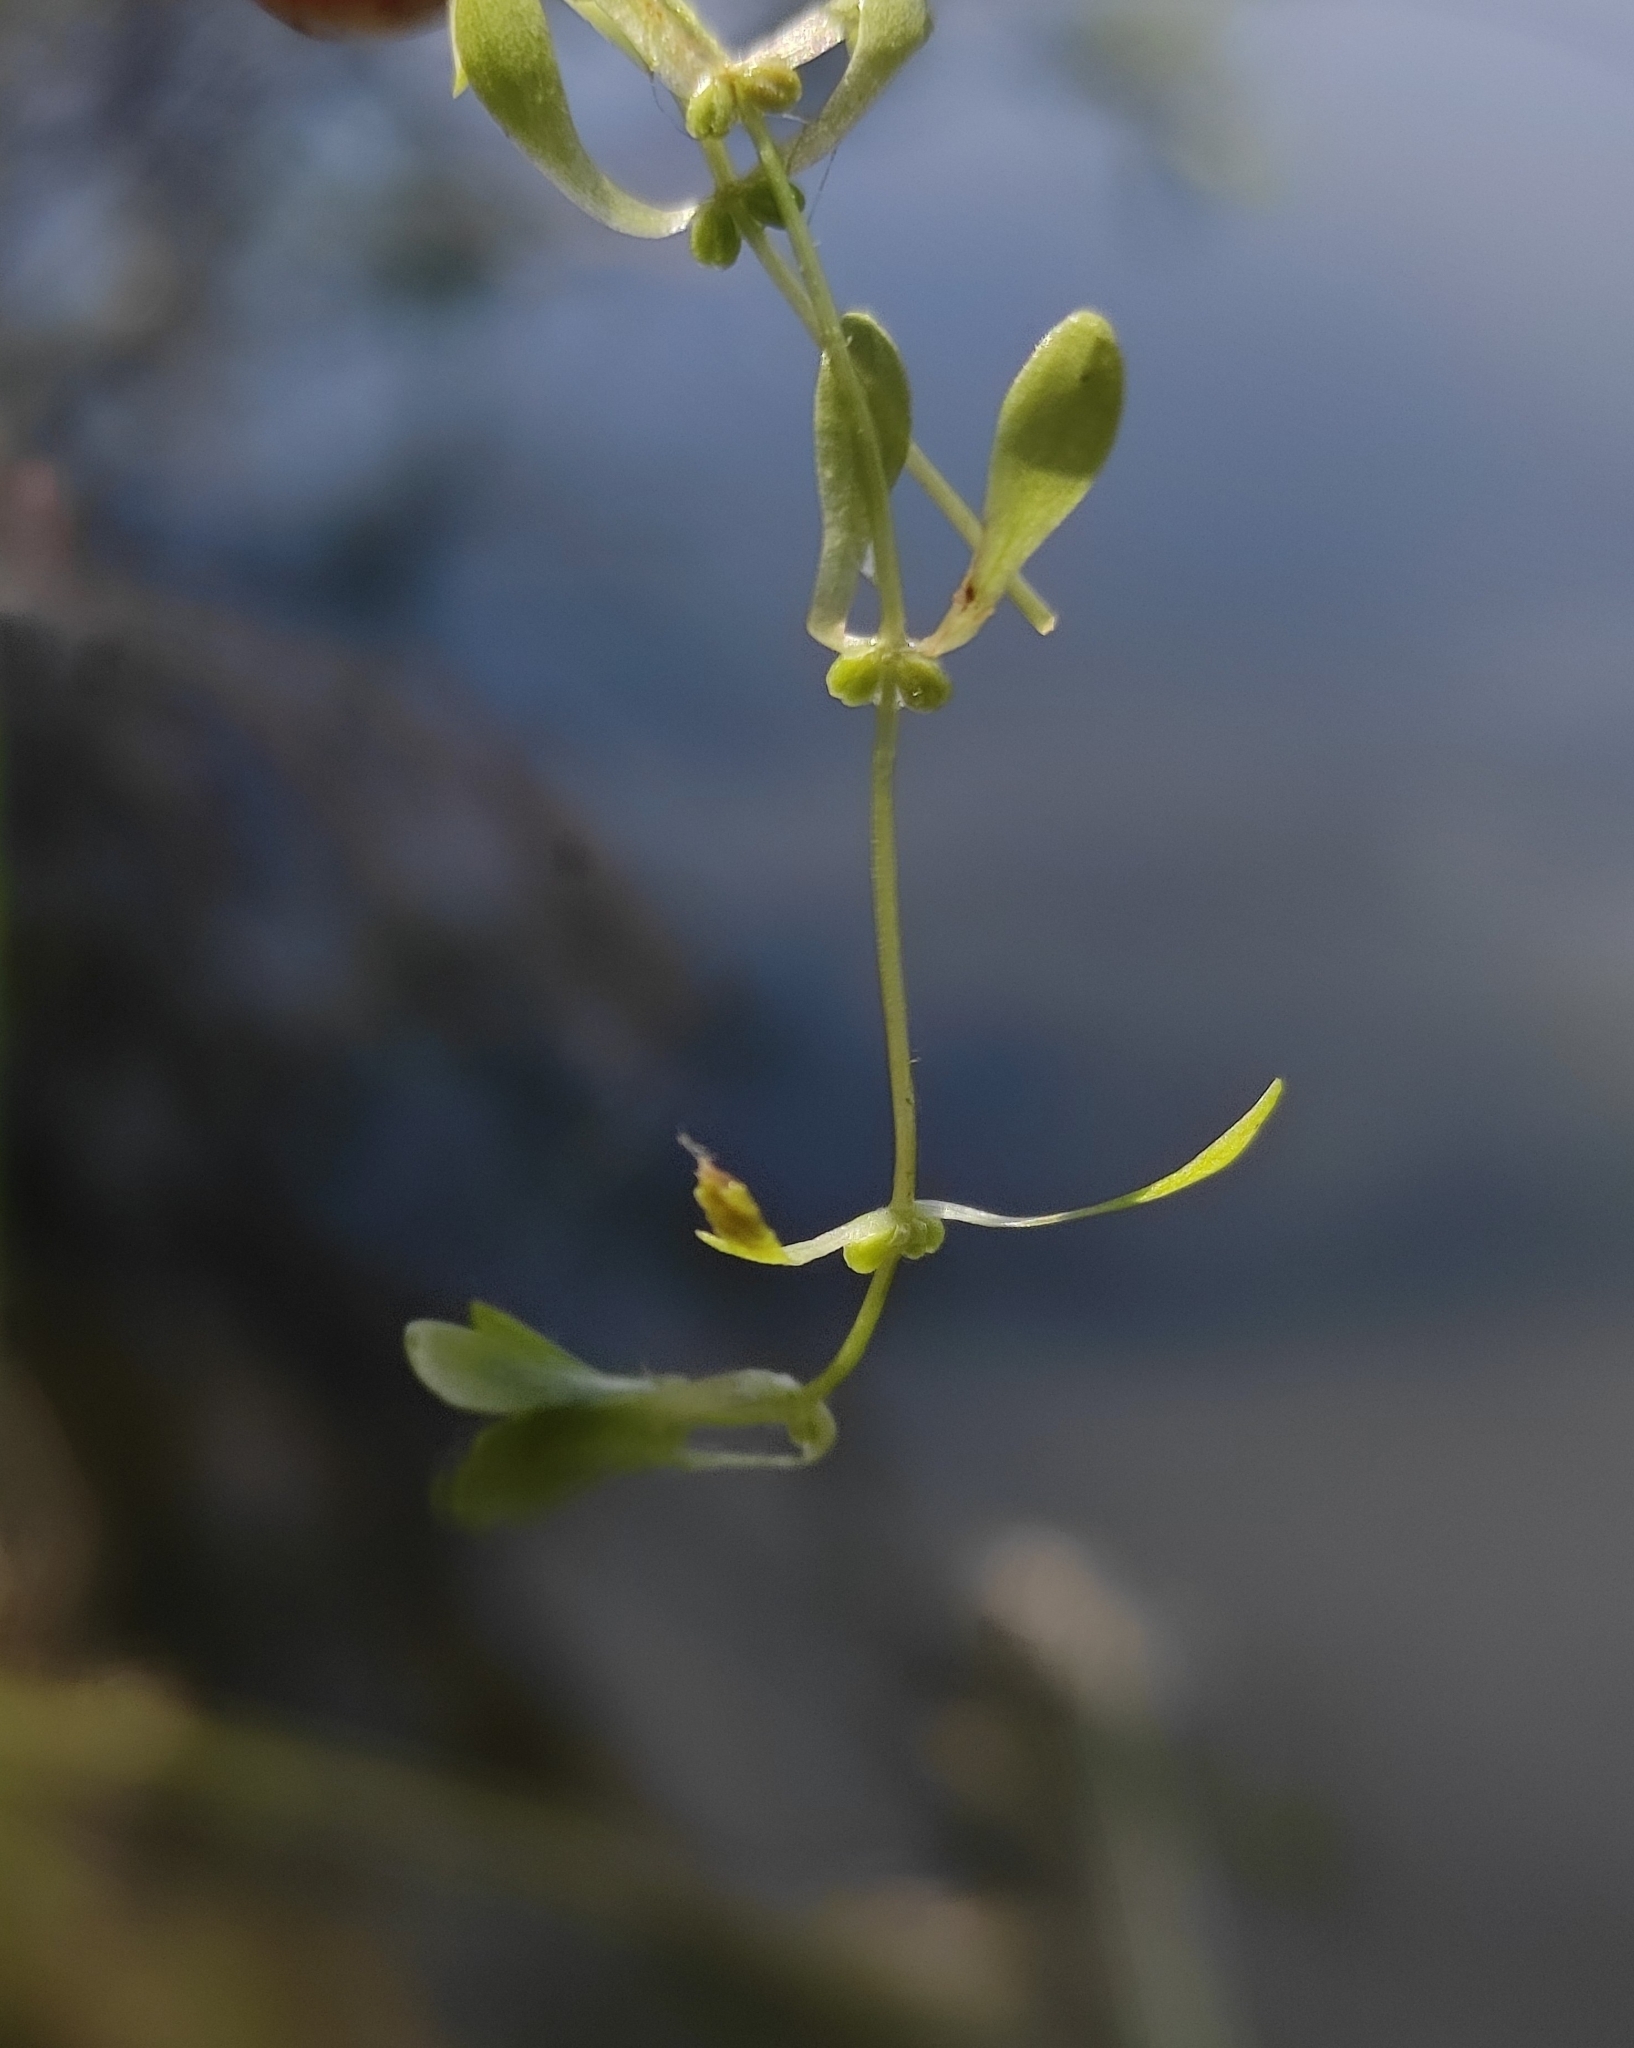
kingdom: Plantae
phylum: Tracheophyta
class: Magnoliopsida
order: Lamiales
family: Plantaginaceae
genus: Callitriche
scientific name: Callitriche palustris
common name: Spring water-starwort
